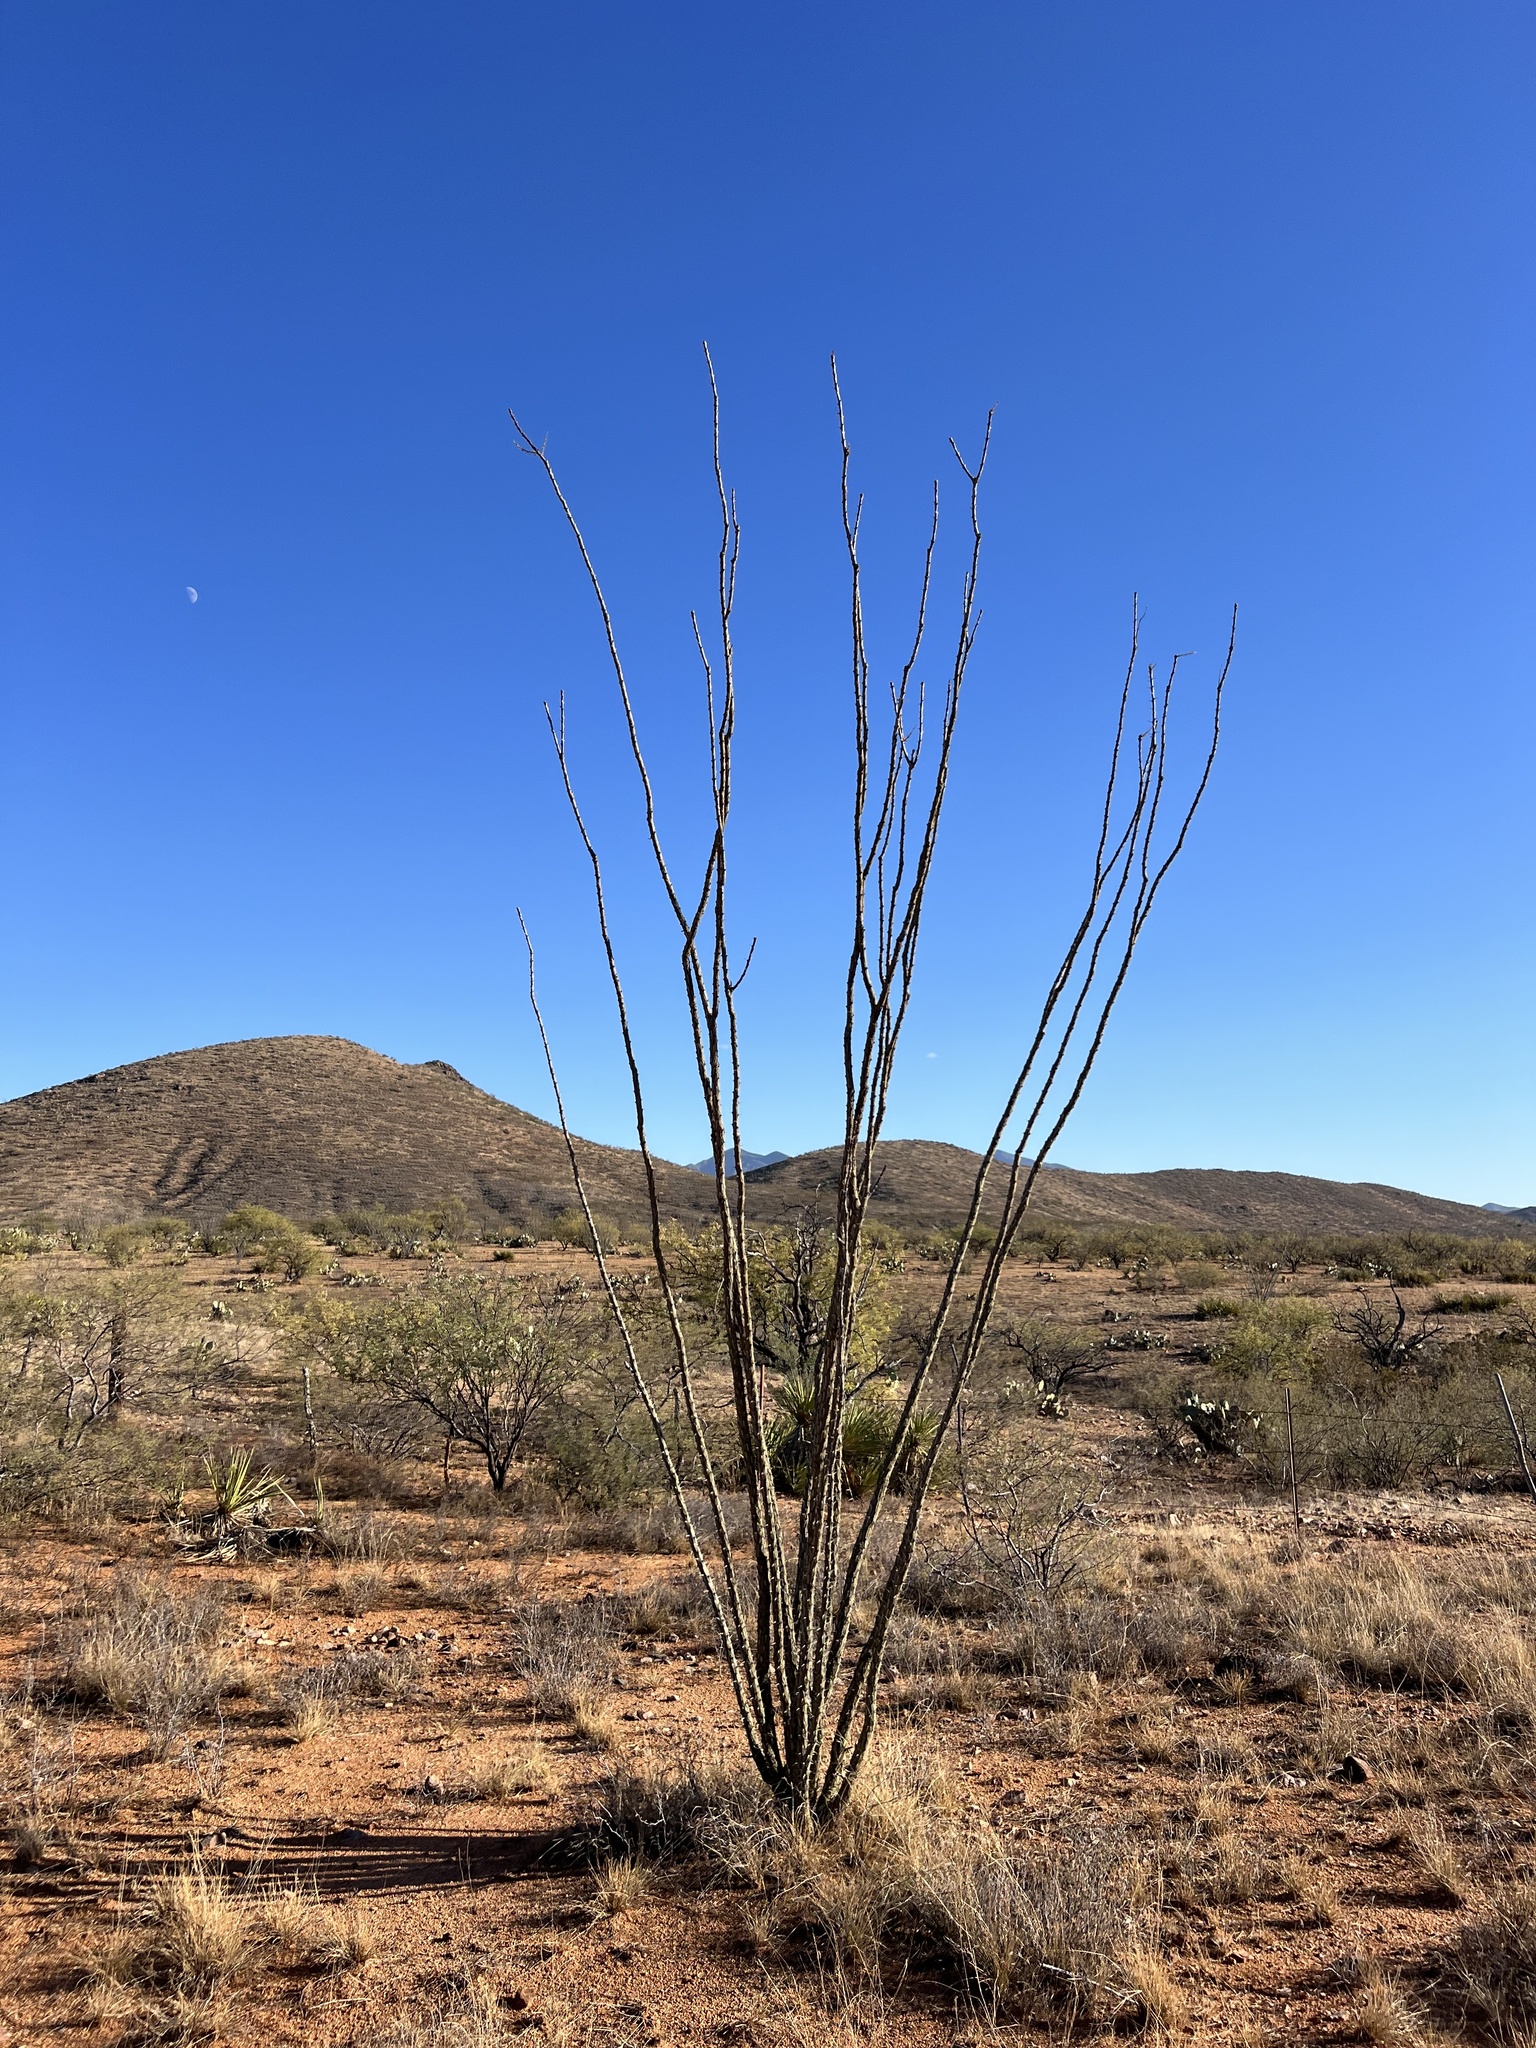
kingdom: Plantae
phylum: Tracheophyta
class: Magnoliopsida
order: Ericales
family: Fouquieriaceae
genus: Fouquieria
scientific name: Fouquieria splendens
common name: Vine-cactus
